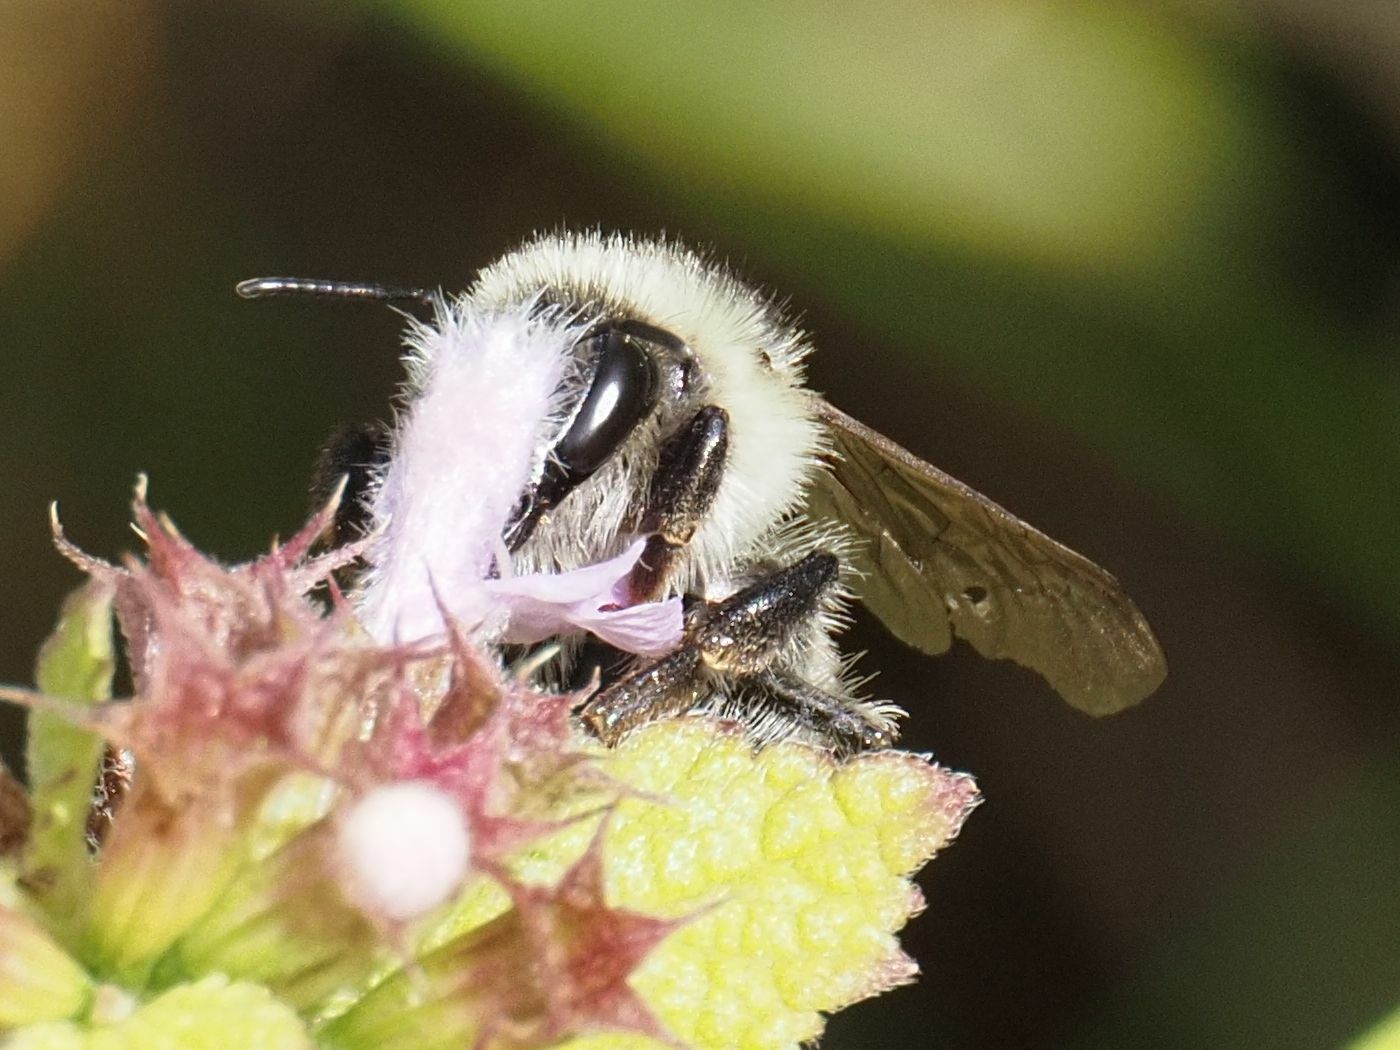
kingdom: Animalia
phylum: Arthropoda
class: Insecta
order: Hymenoptera
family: Apidae
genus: Bombus
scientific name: Bombus sylvarum
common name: Shrill carder bee
